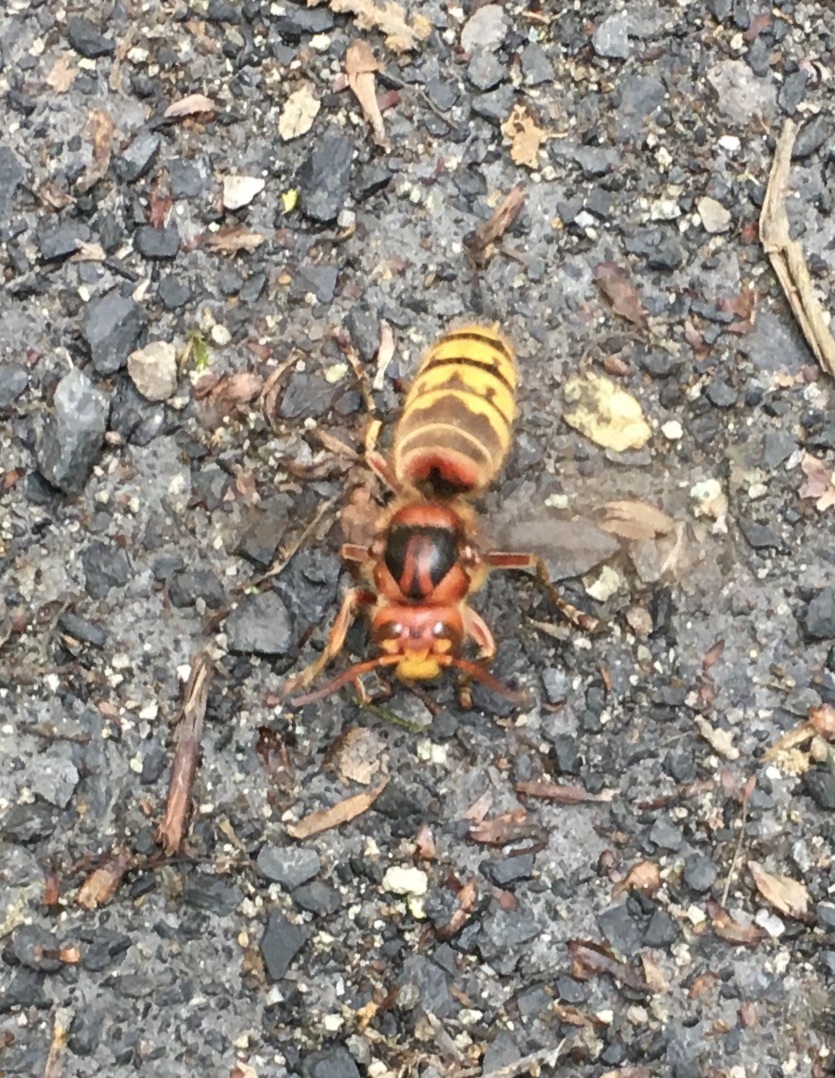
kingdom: Animalia
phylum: Arthropoda
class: Insecta
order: Hymenoptera
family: Vespidae
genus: Vespa
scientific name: Vespa crabro
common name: Hornet
